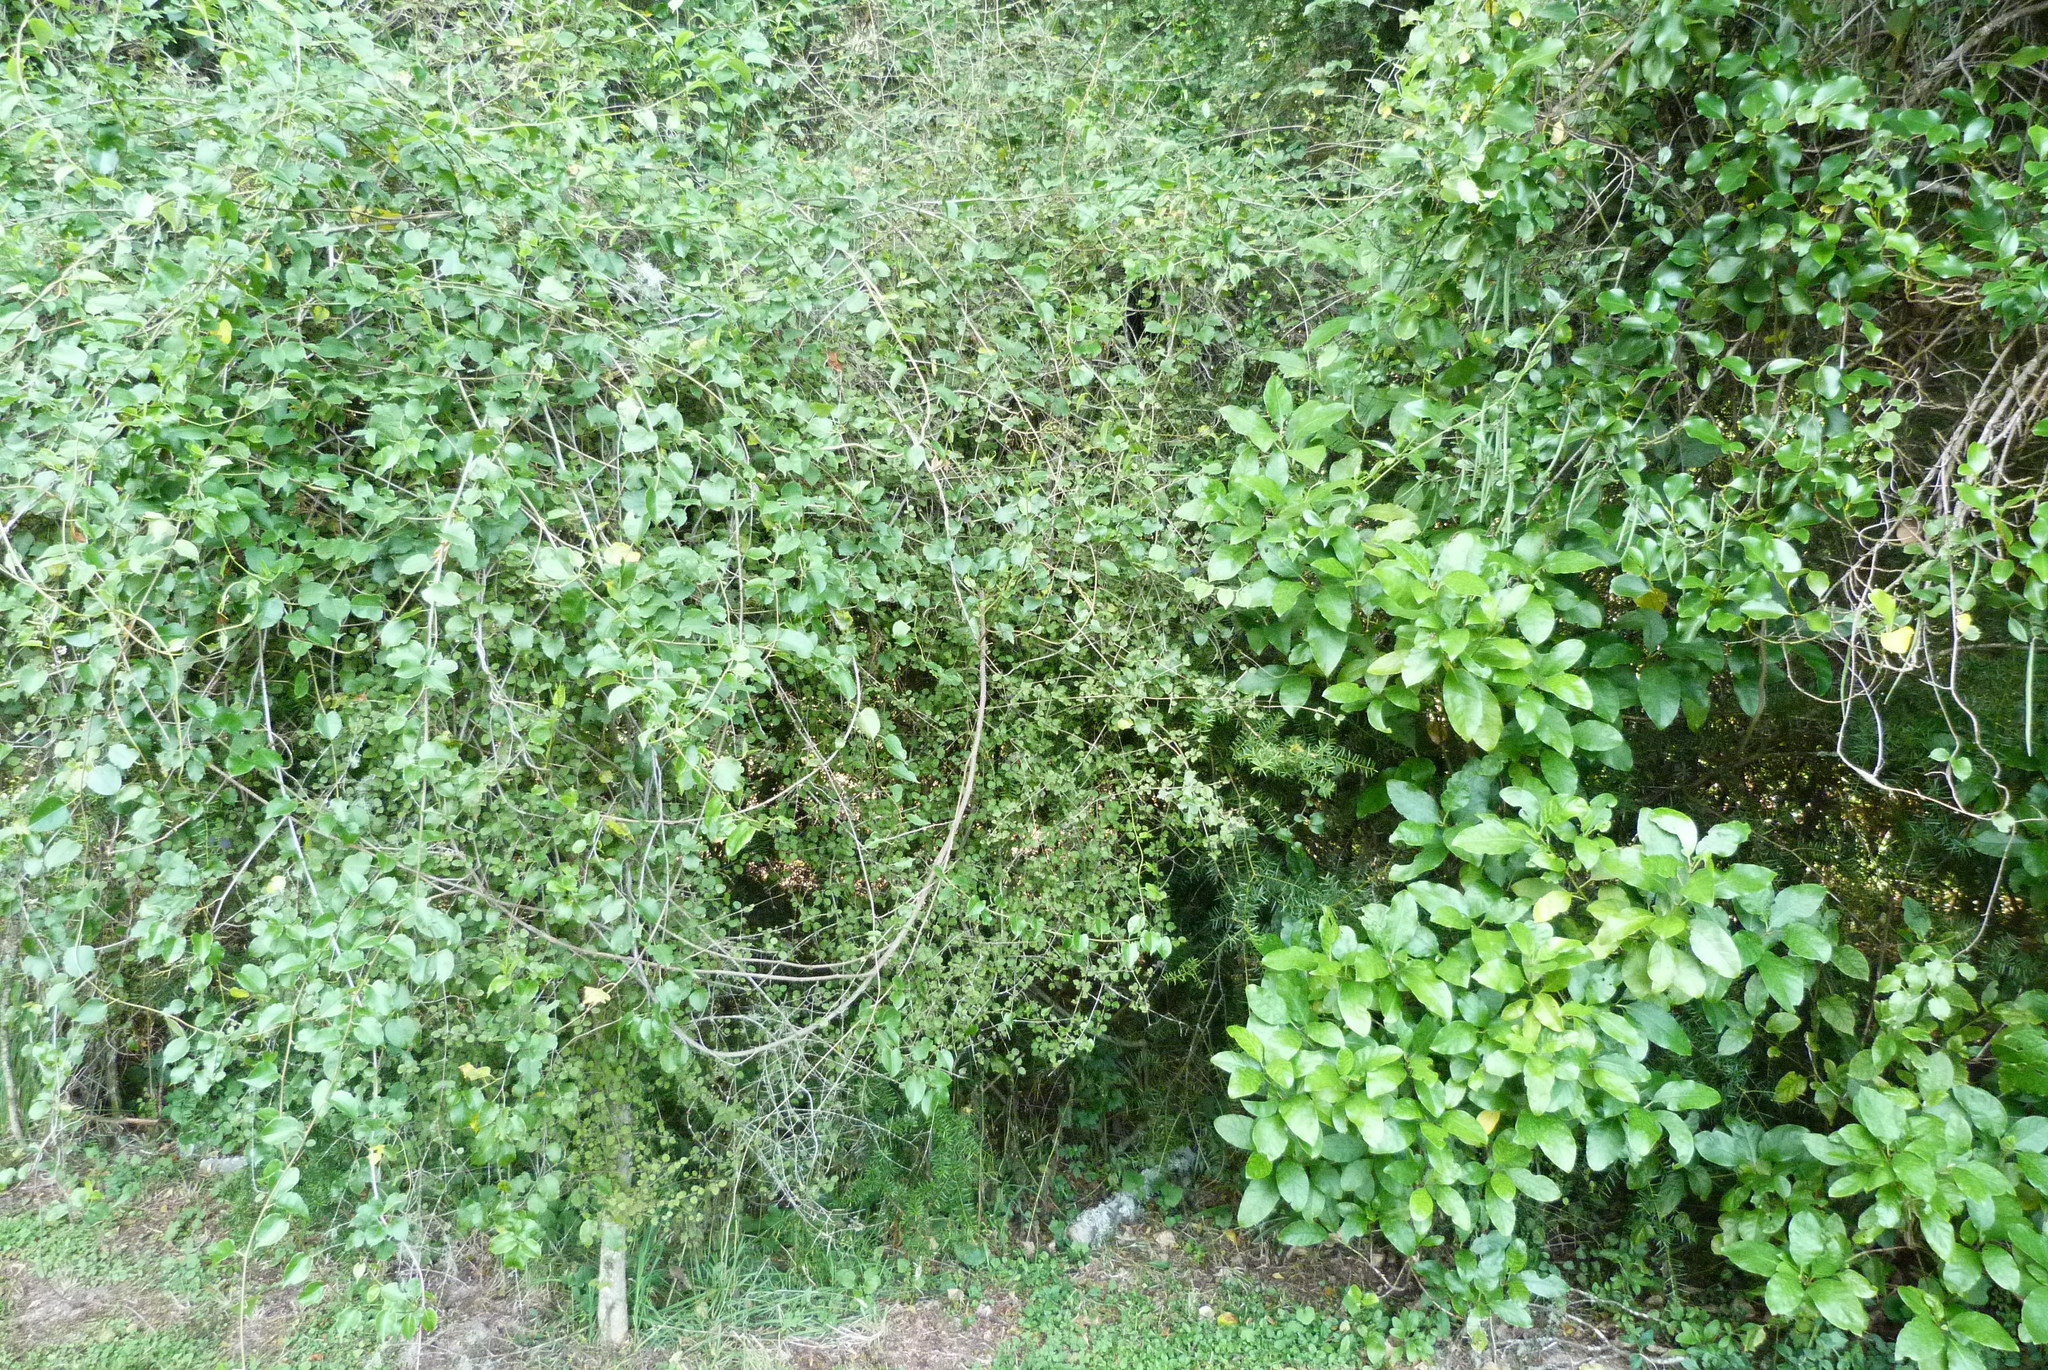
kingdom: Plantae
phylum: Tracheophyta
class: Magnoliopsida
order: Caryophyllales
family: Polygonaceae
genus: Muehlenbeckia
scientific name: Muehlenbeckia australis
